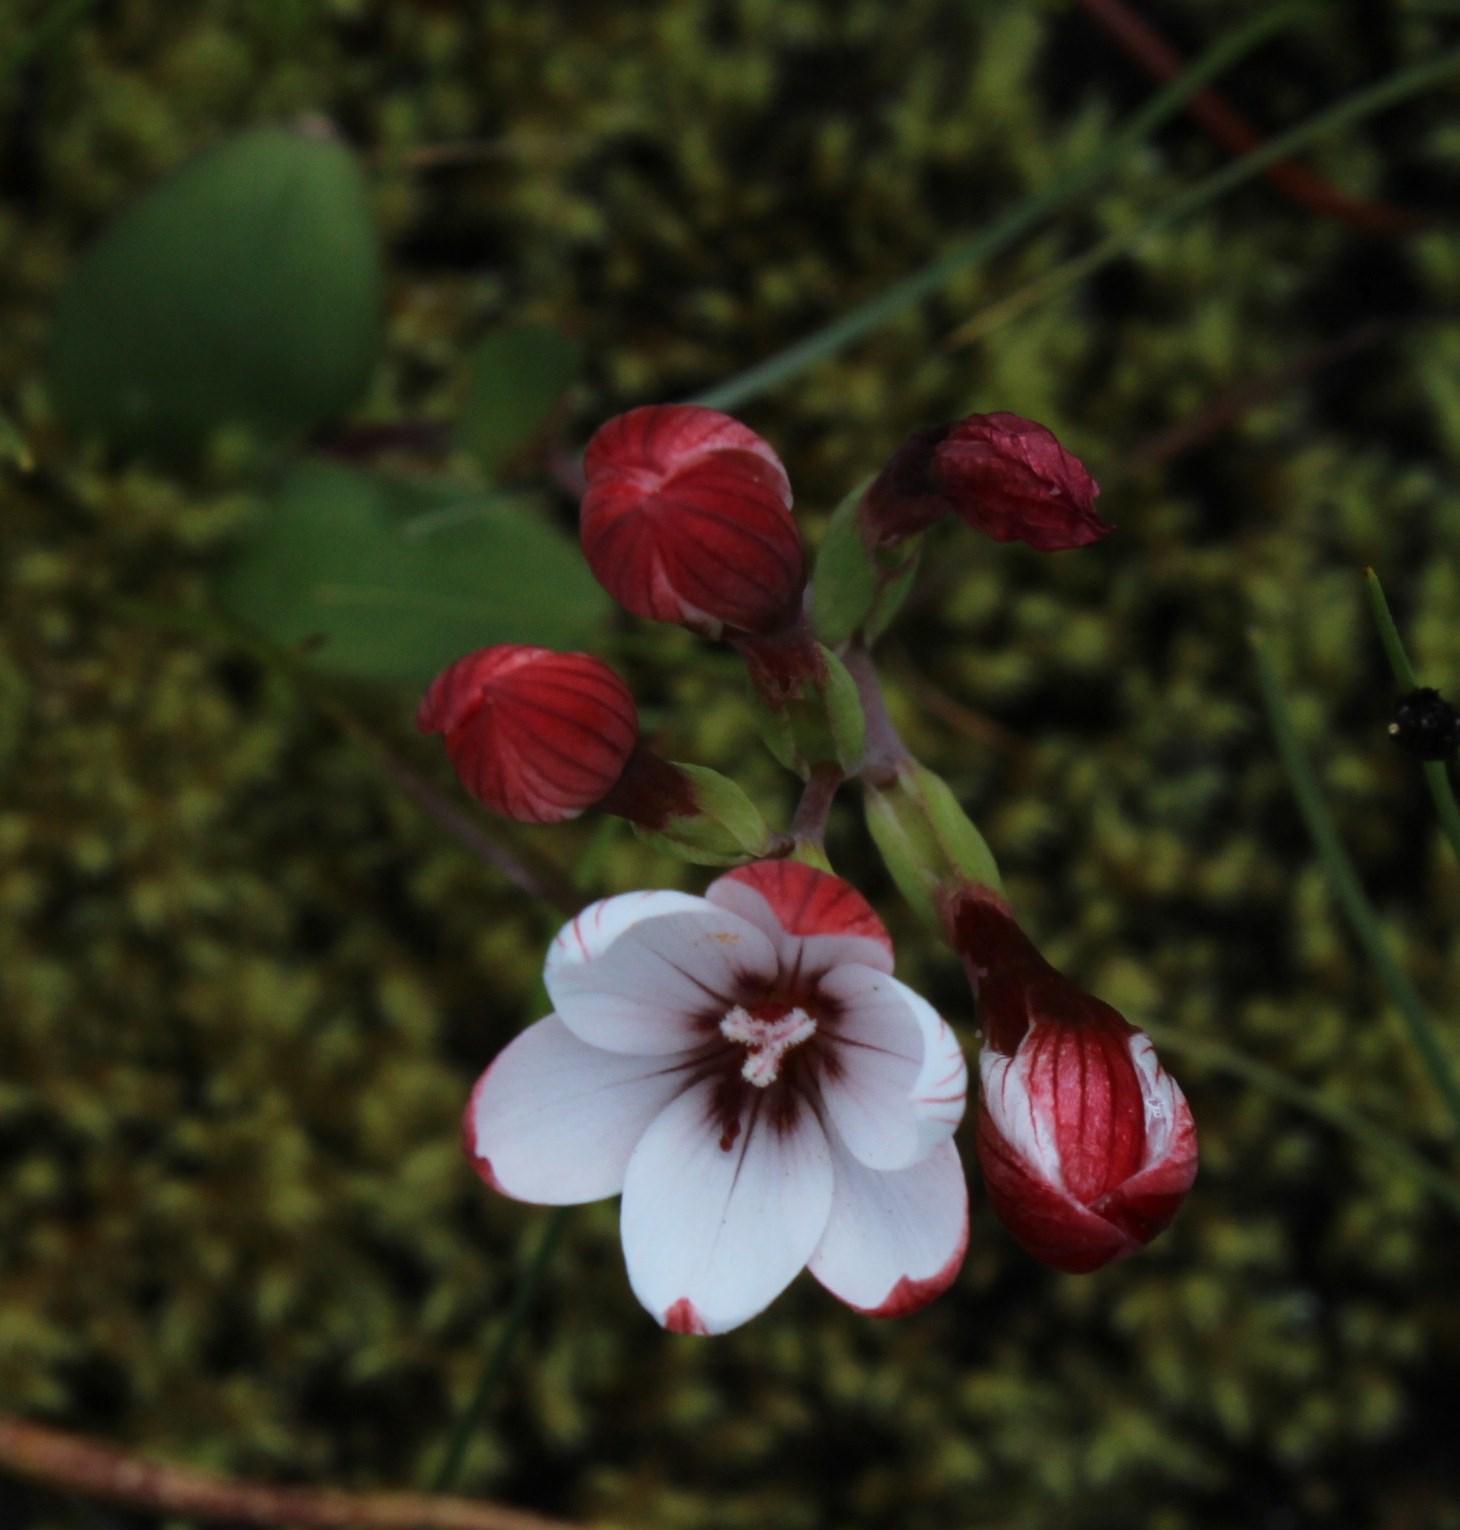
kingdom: Plantae
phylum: Tracheophyta
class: Liliopsida
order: Asparagales
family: Iridaceae
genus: Geissorhiza
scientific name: Geissorhiza ovata
